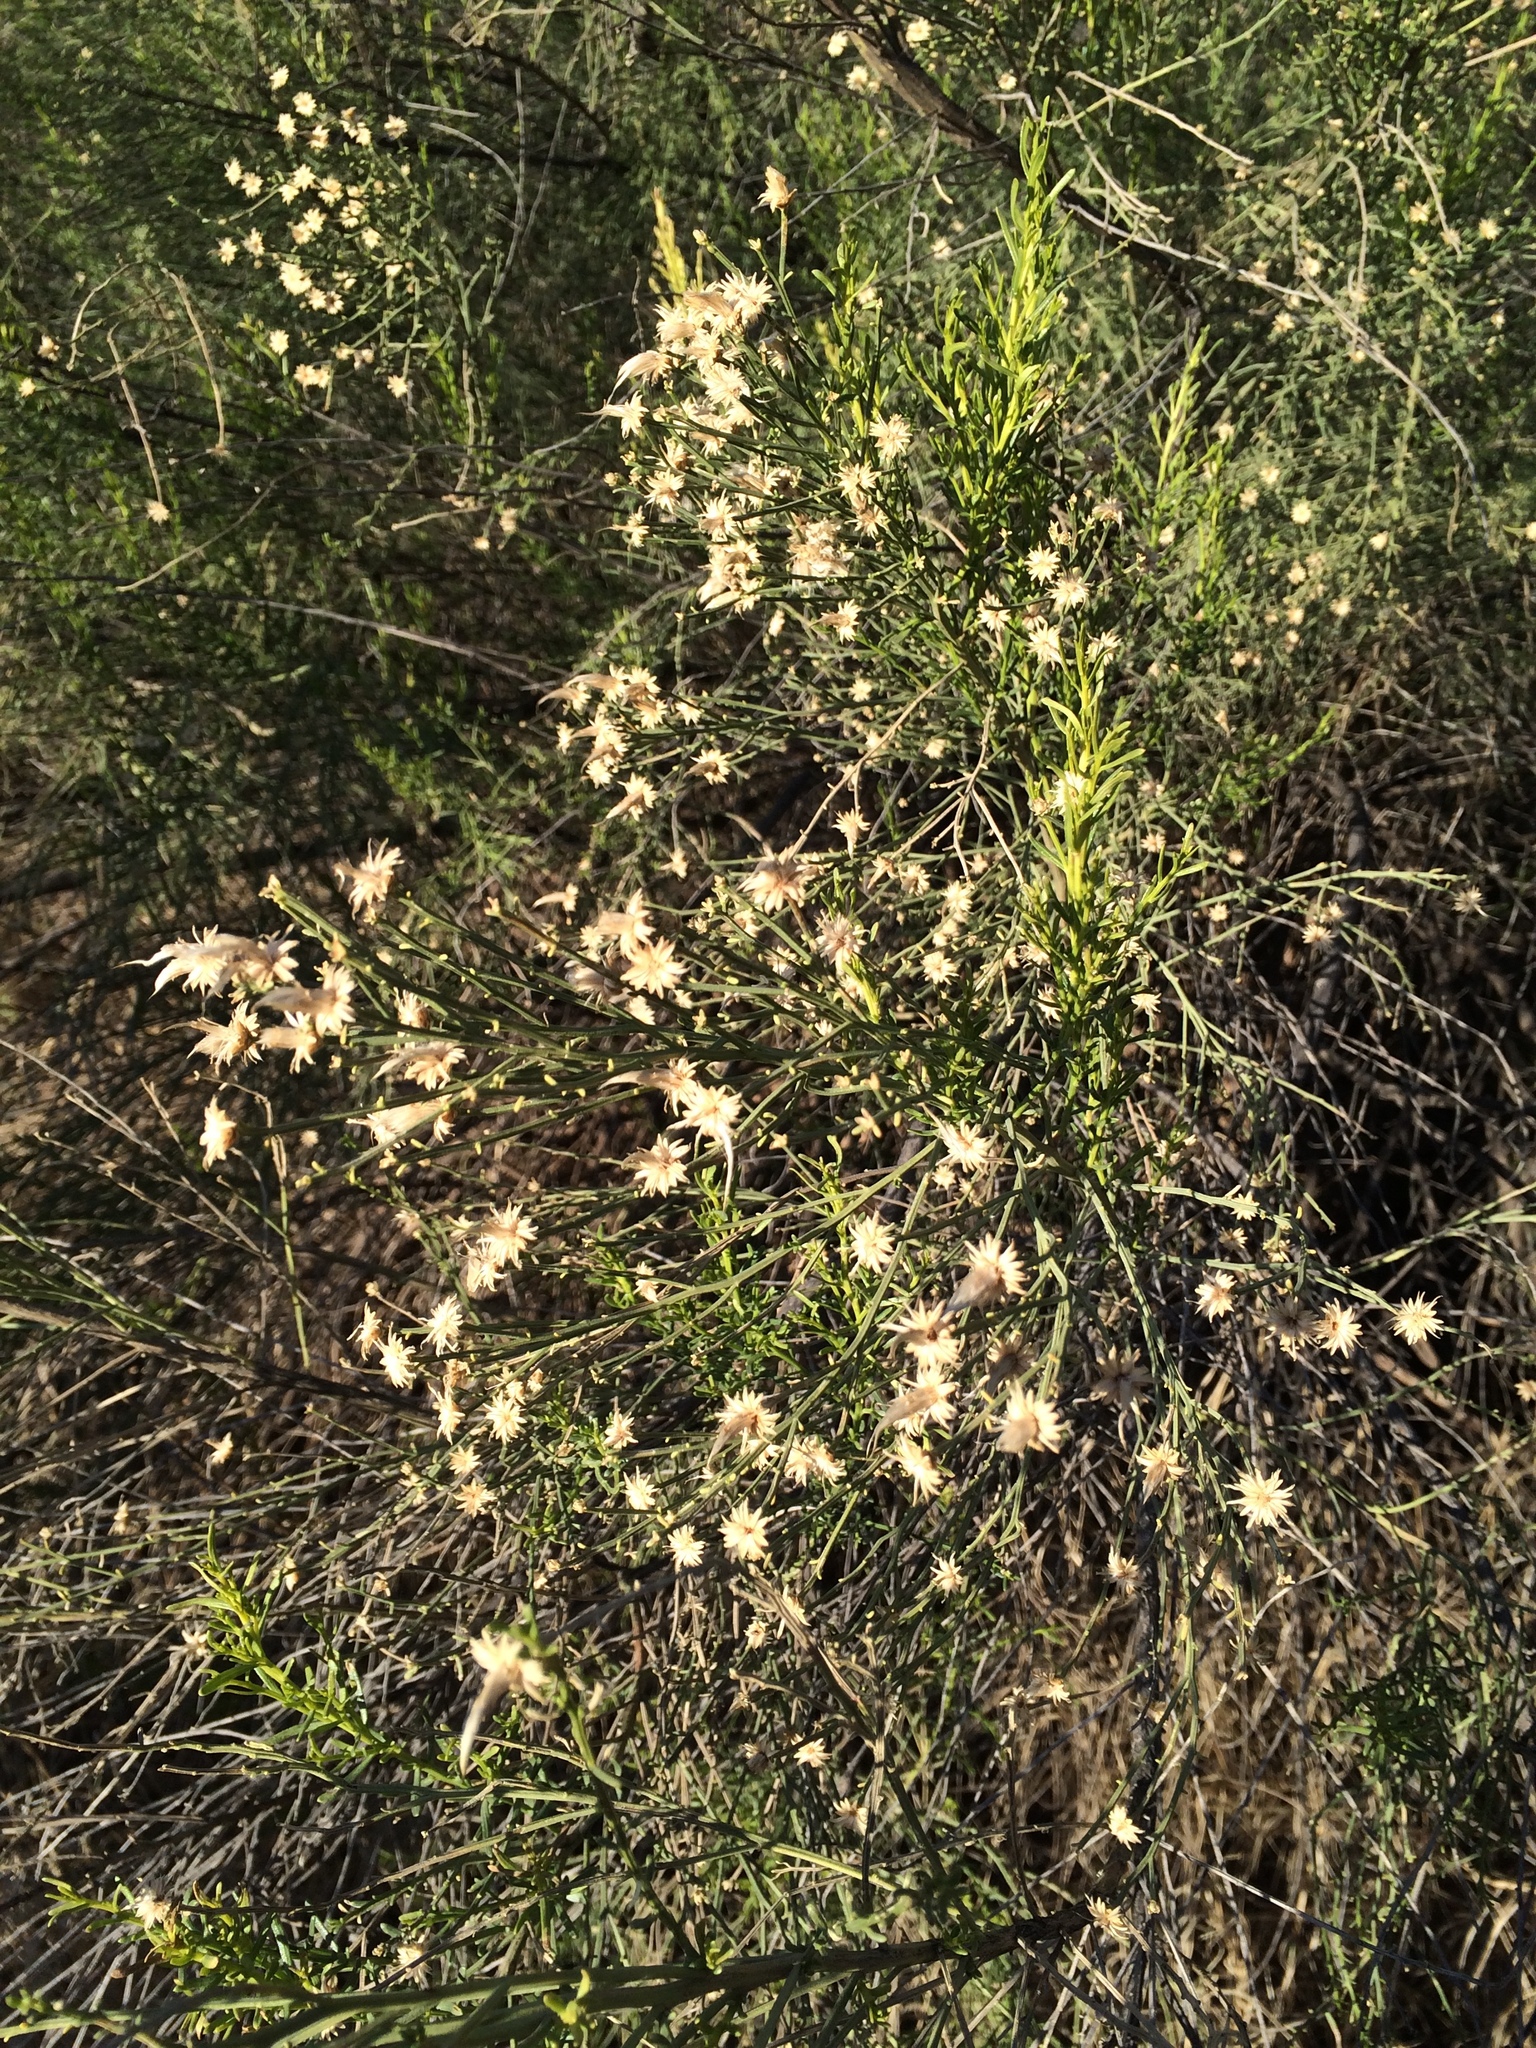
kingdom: Plantae
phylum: Tracheophyta
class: Magnoliopsida
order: Asterales
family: Asteraceae
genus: Baccharis
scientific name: Baccharis sarothroides
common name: Desert-broom
